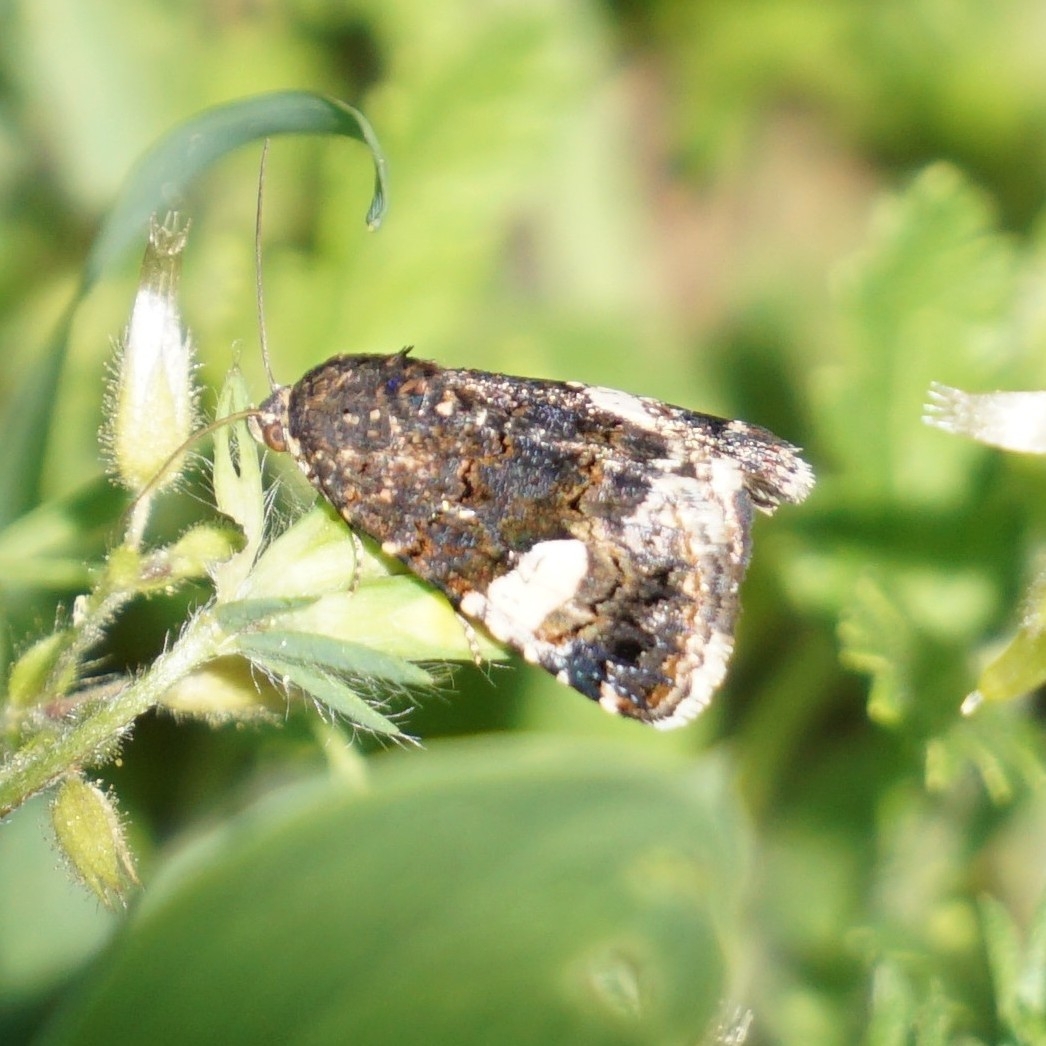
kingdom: Animalia
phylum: Arthropoda
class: Insecta
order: Lepidoptera
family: Erebidae
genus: Tyta
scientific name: Tyta luctuosa
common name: Four-spotted
